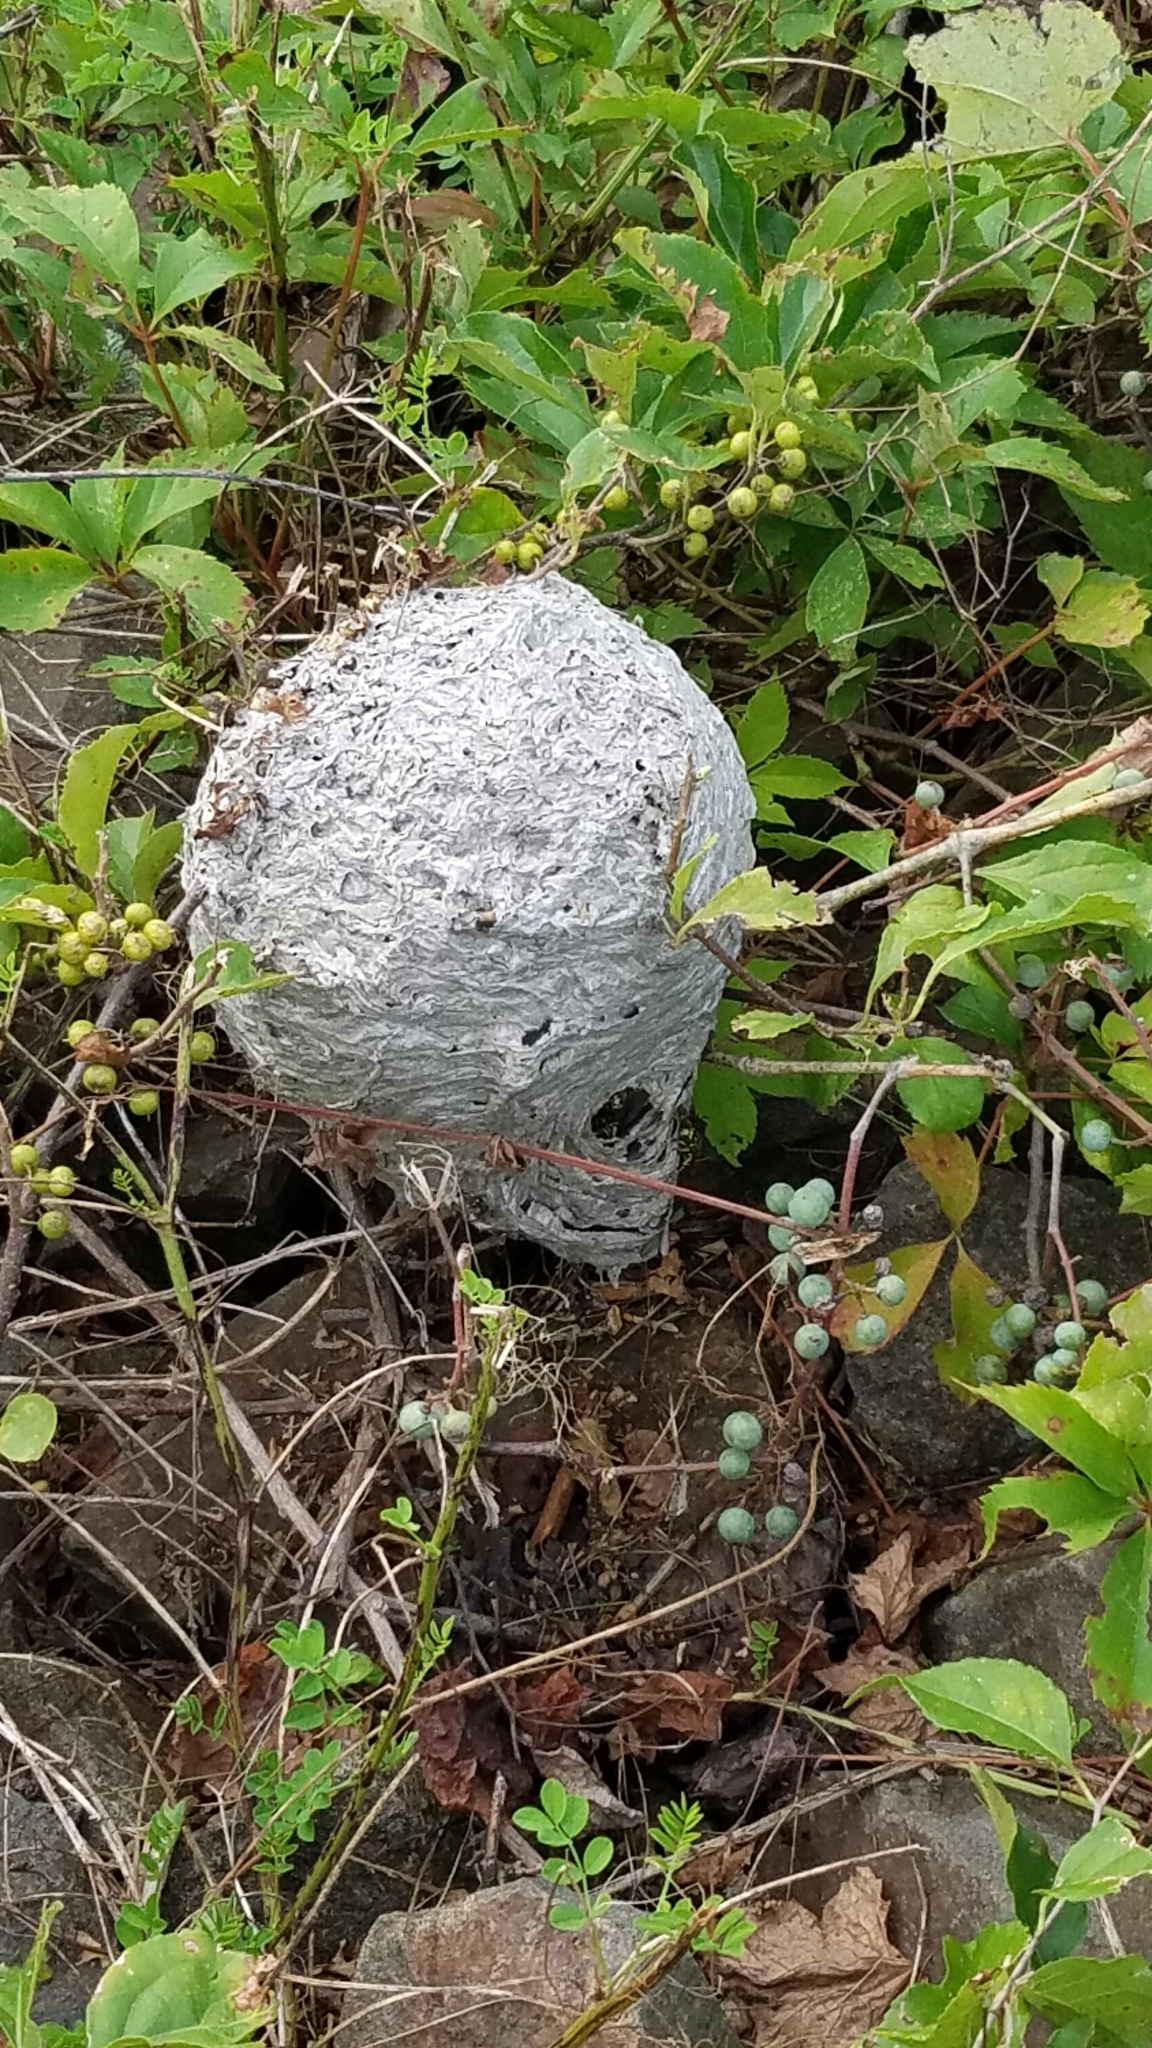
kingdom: Animalia
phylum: Arthropoda
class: Insecta
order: Hymenoptera
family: Vespidae
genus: Dolichovespula
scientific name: Dolichovespula maculata
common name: Bald-faced hornet
